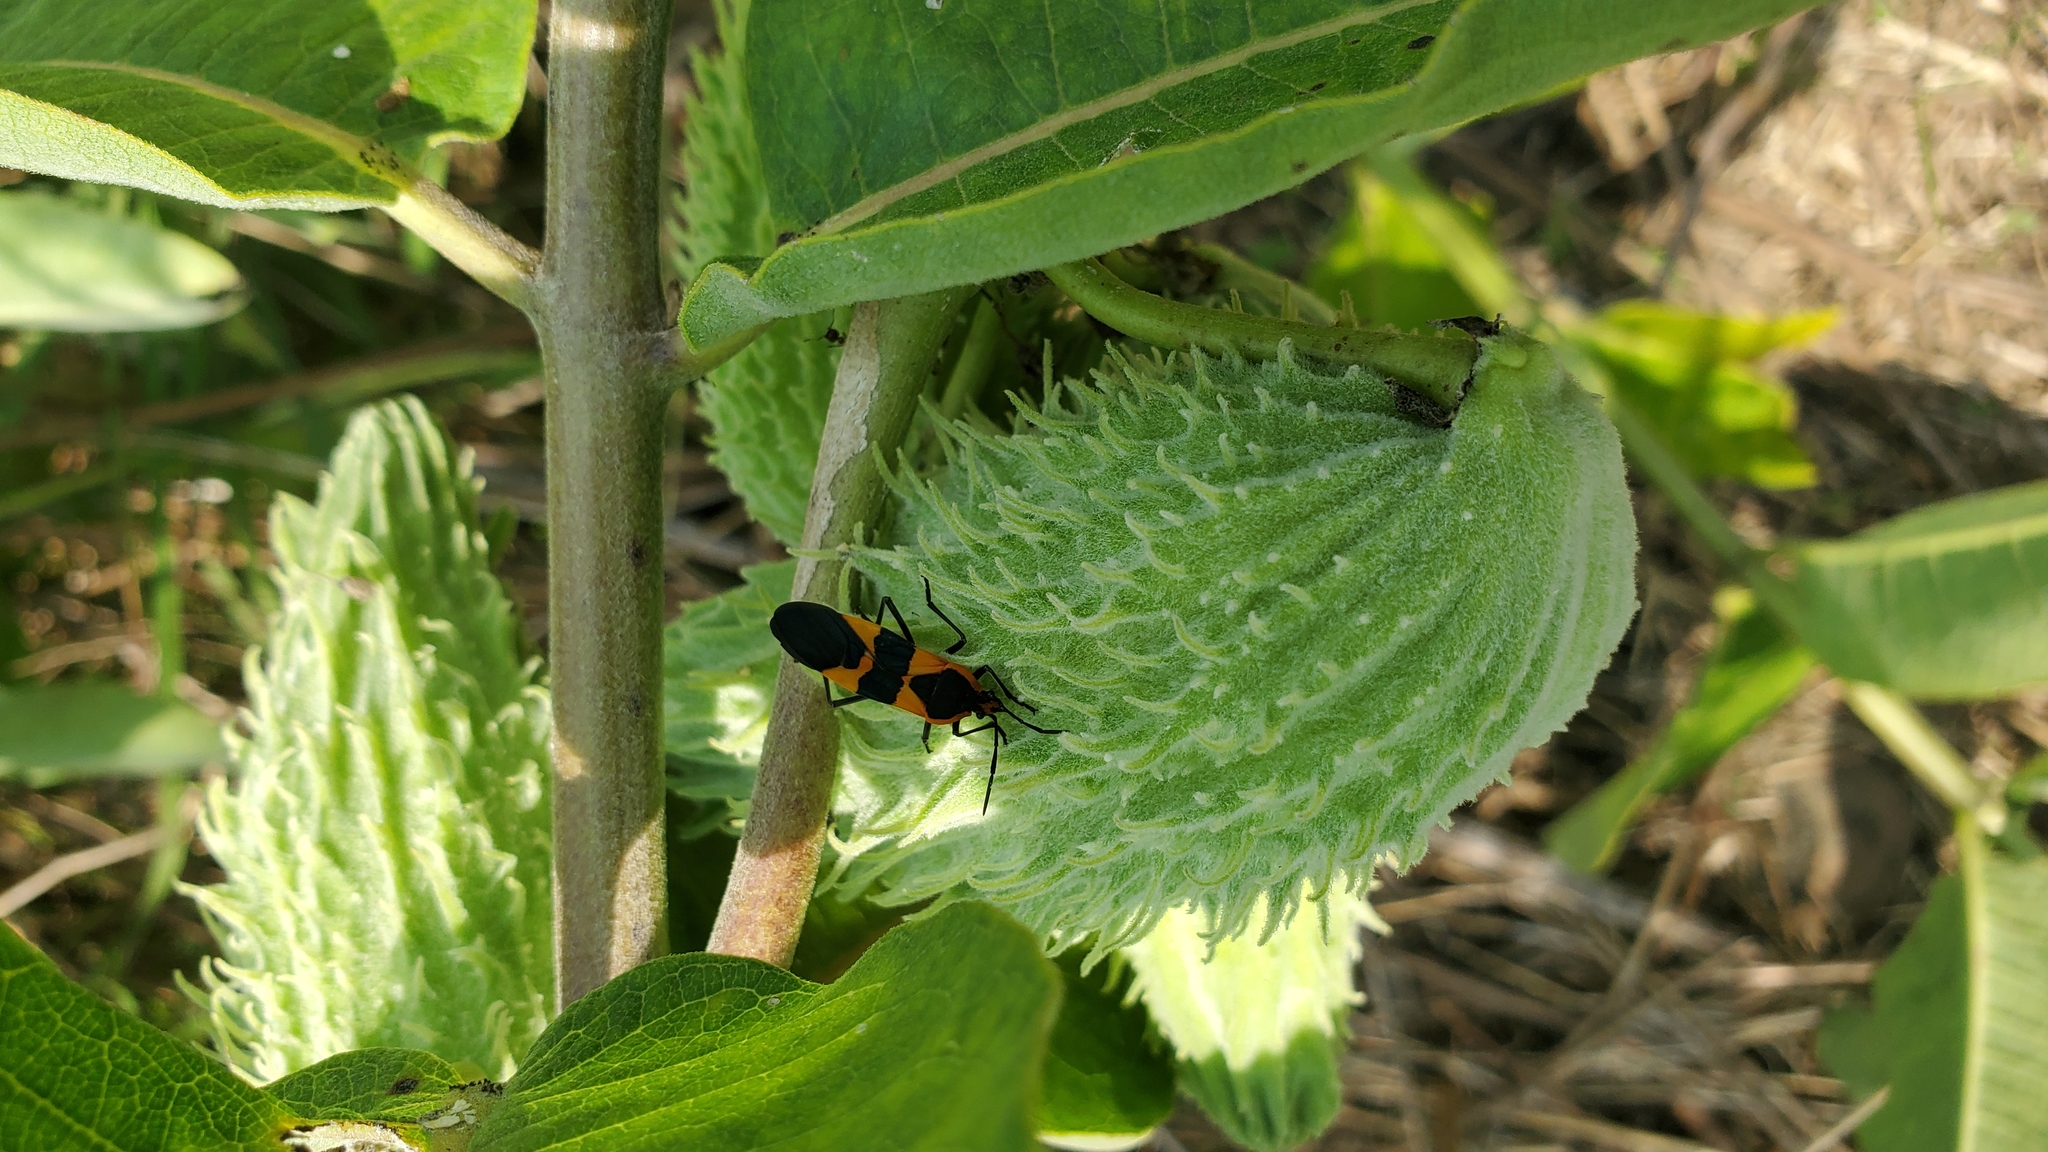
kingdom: Animalia
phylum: Arthropoda
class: Insecta
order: Hemiptera
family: Lygaeidae
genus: Oncopeltus
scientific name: Oncopeltus fasciatus
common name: Large milkweed bug
